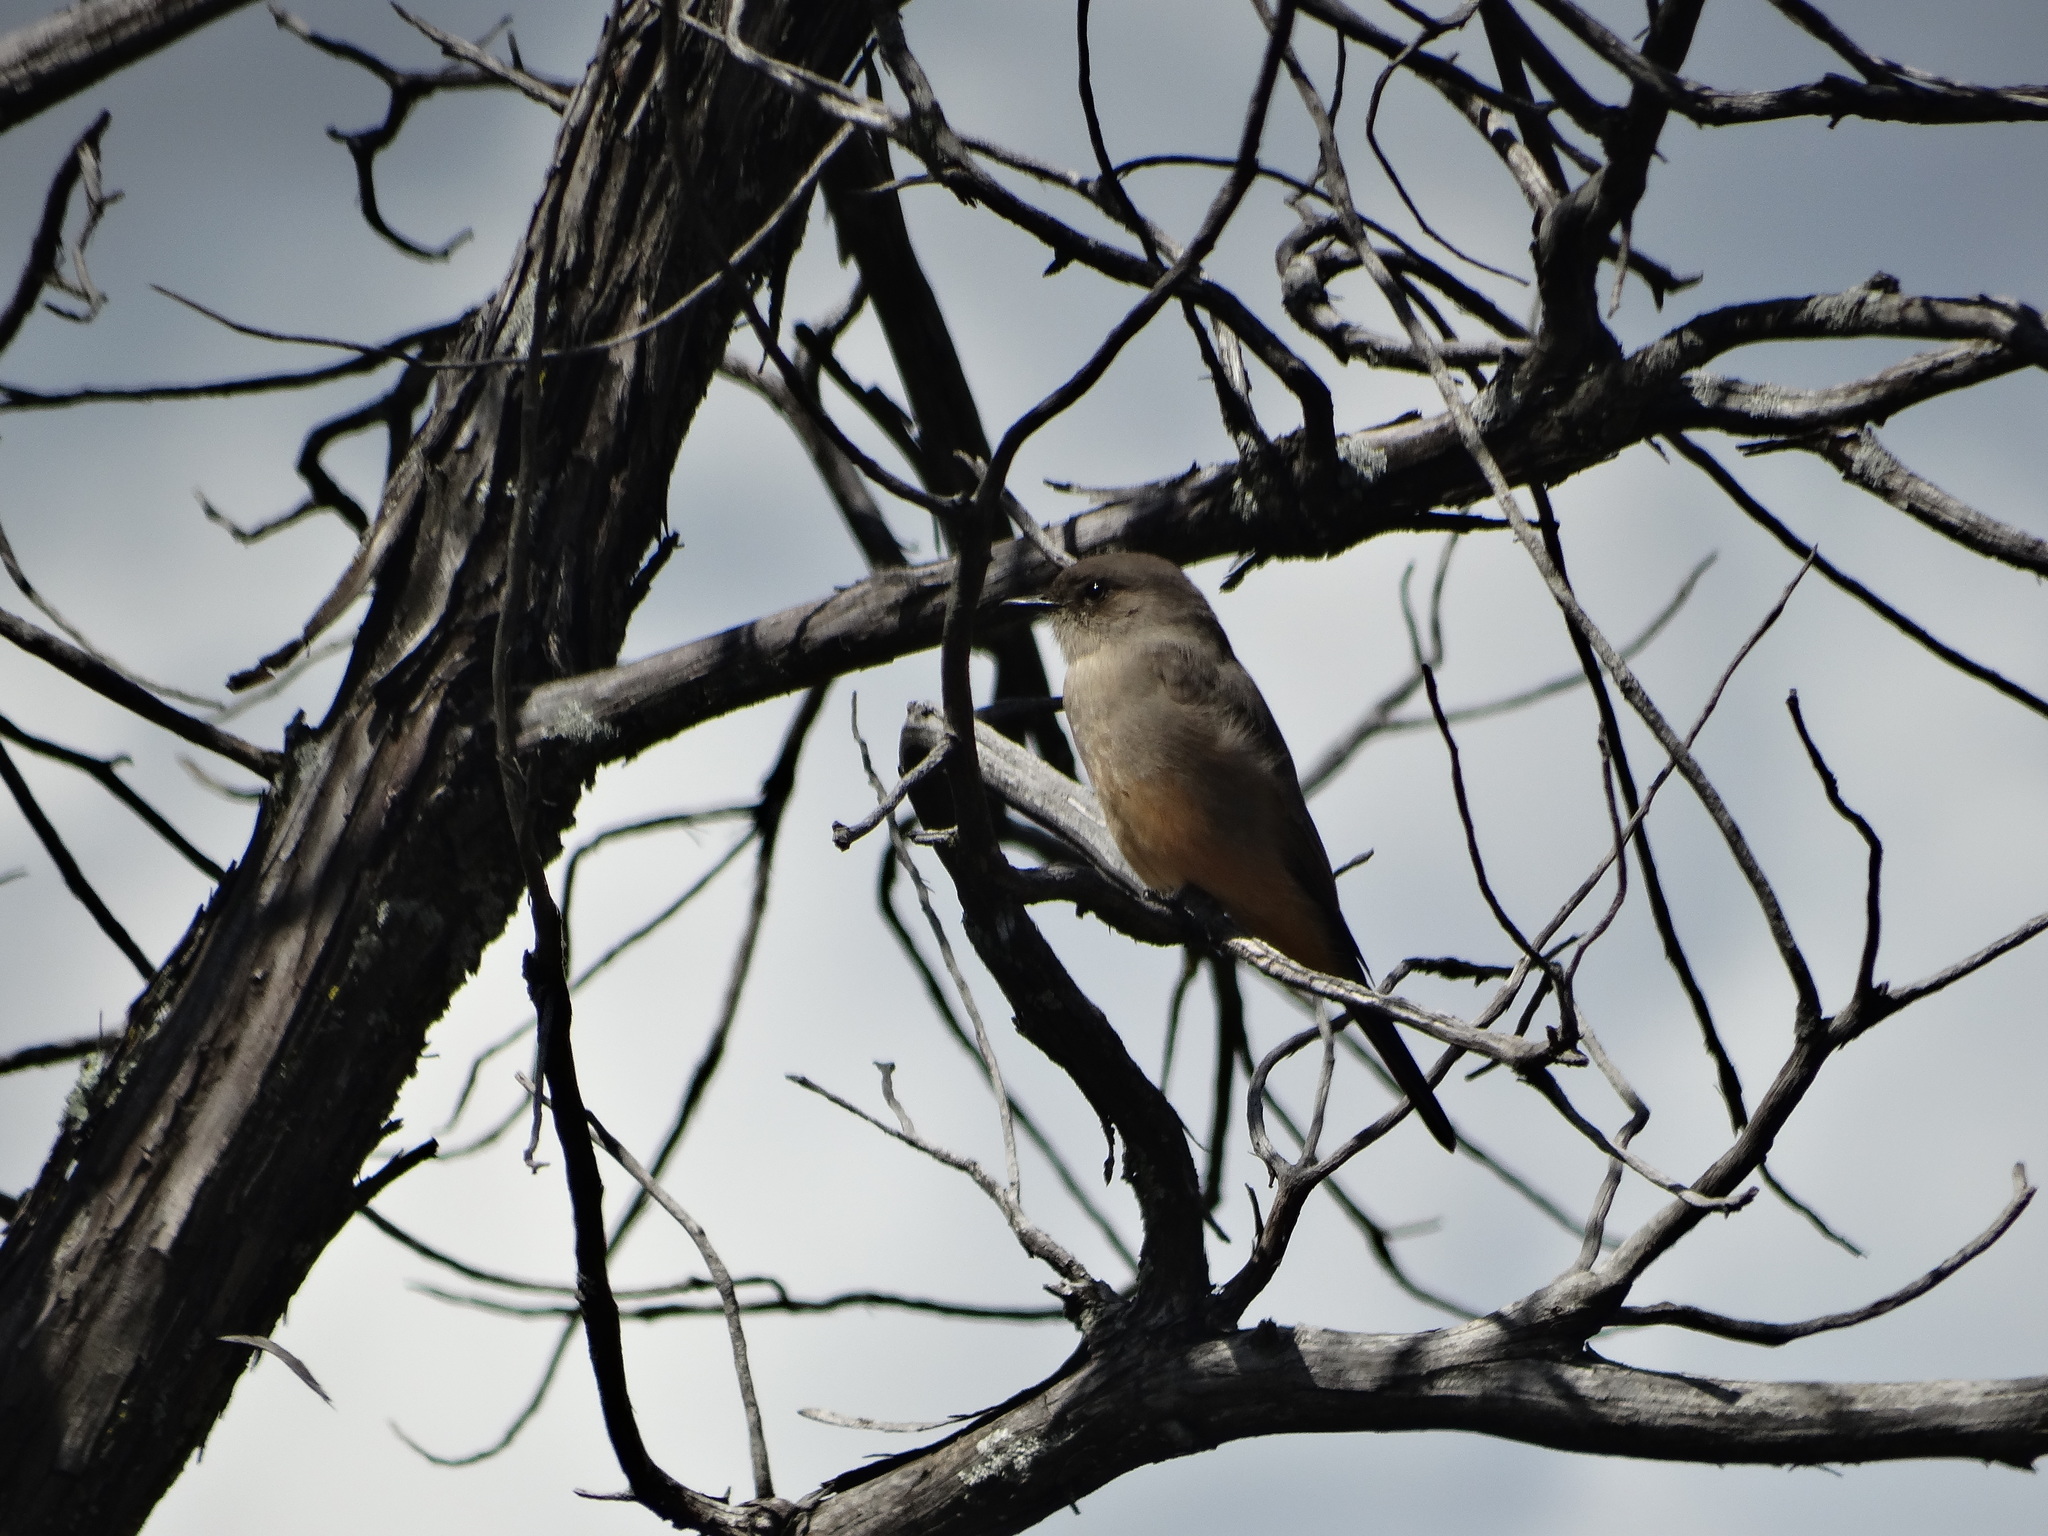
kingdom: Animalia
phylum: Chordata
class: Aves
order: Passeriformes
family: Tyrannidae
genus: Sayornis
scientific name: Sayornis saya
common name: Say's phoebe
